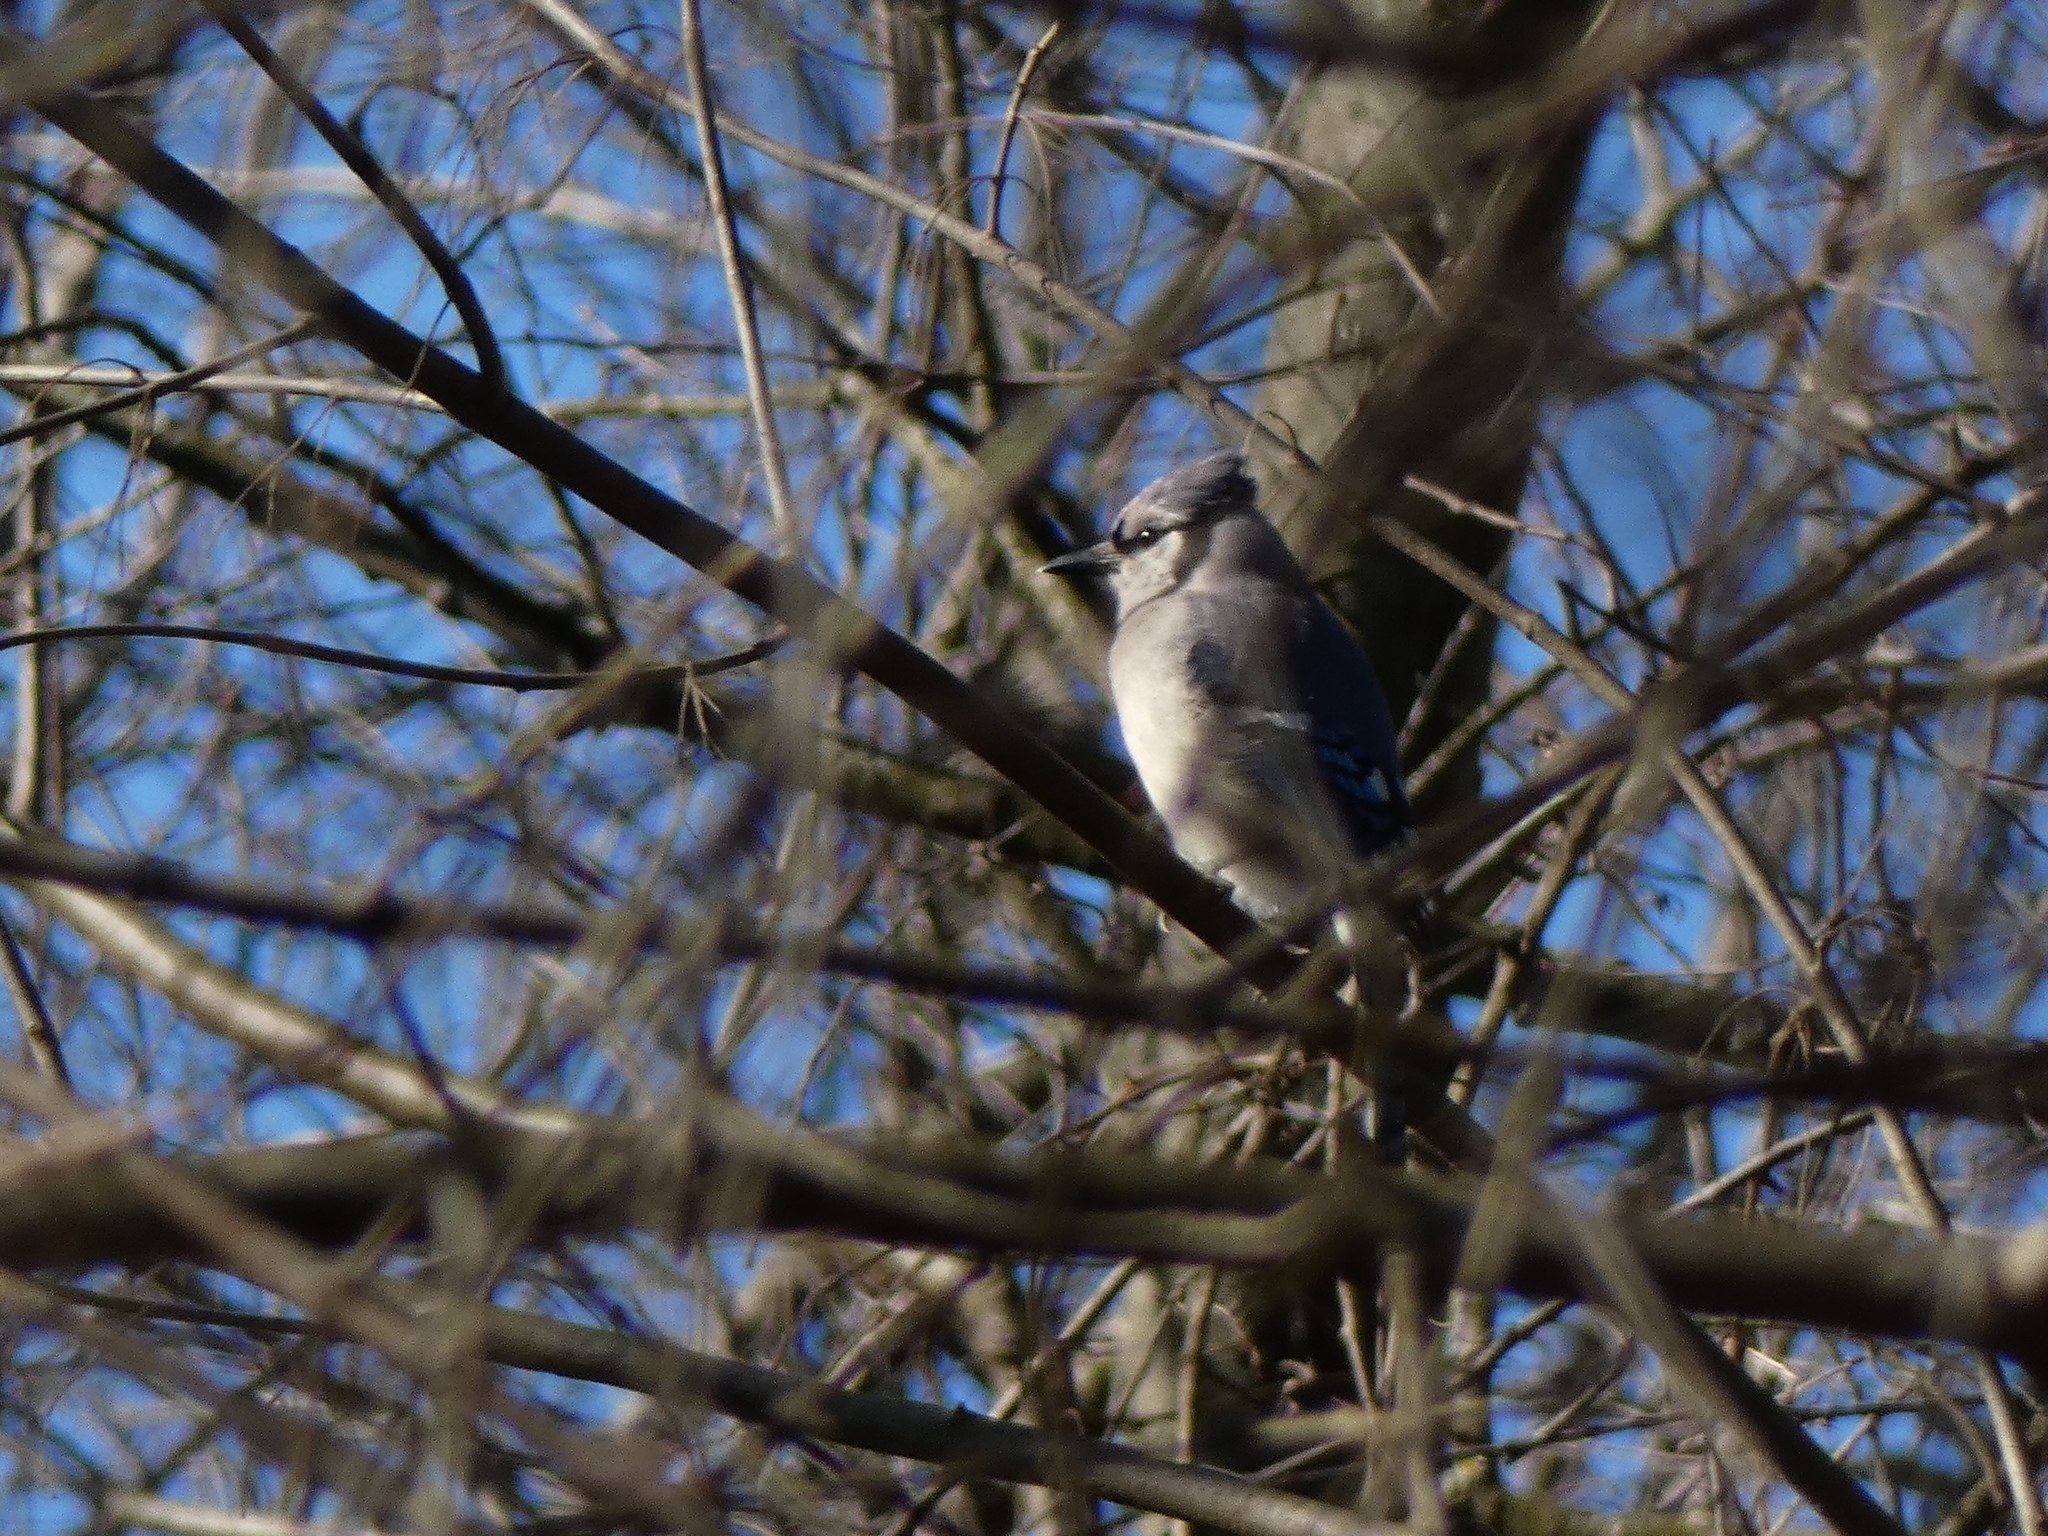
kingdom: Animalia
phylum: Chordata
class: Aves
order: Passeriformes
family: Corvidae
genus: Cyanocitta
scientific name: Cyanocitta cristata
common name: Blue jay
